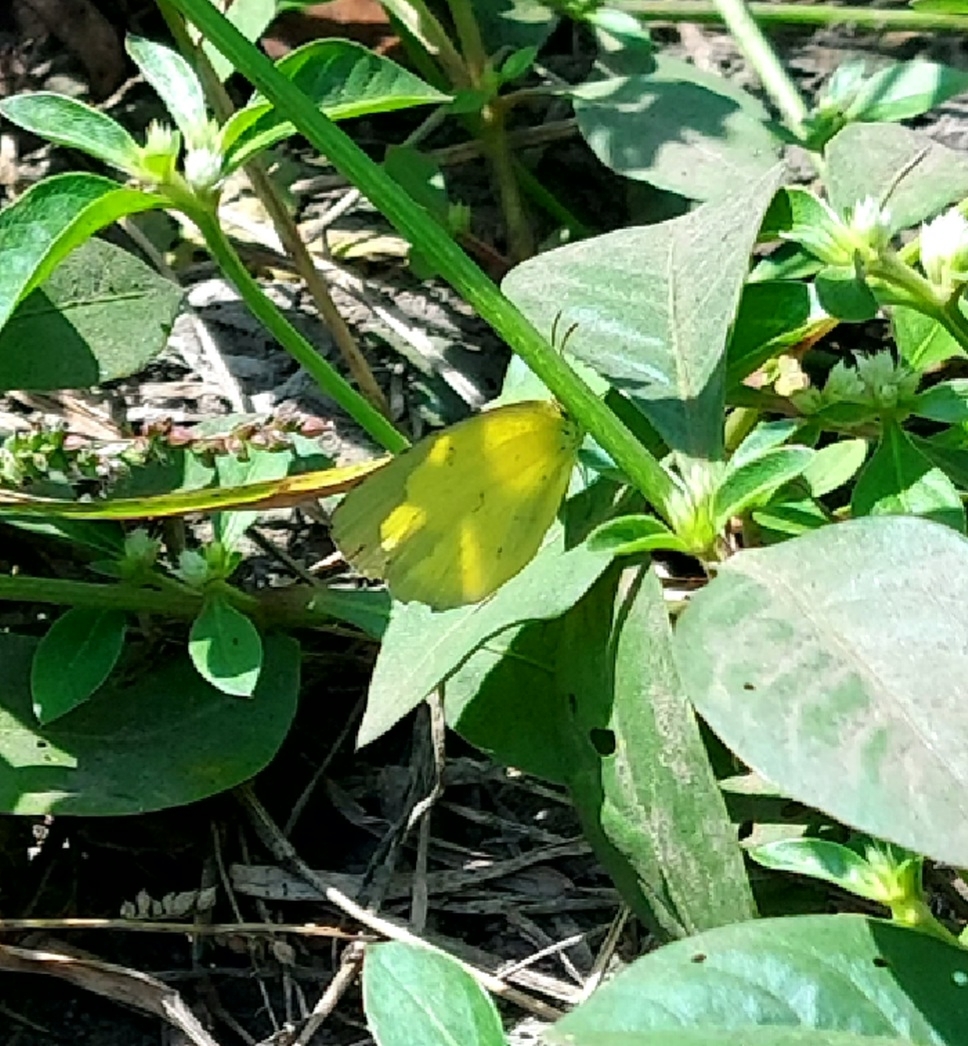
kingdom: Animalia
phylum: Arthropoda
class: Insecta
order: Lepidoptera
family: Pieridae
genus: Eurema
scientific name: Eurema hecabe
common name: Pale grass yellow
